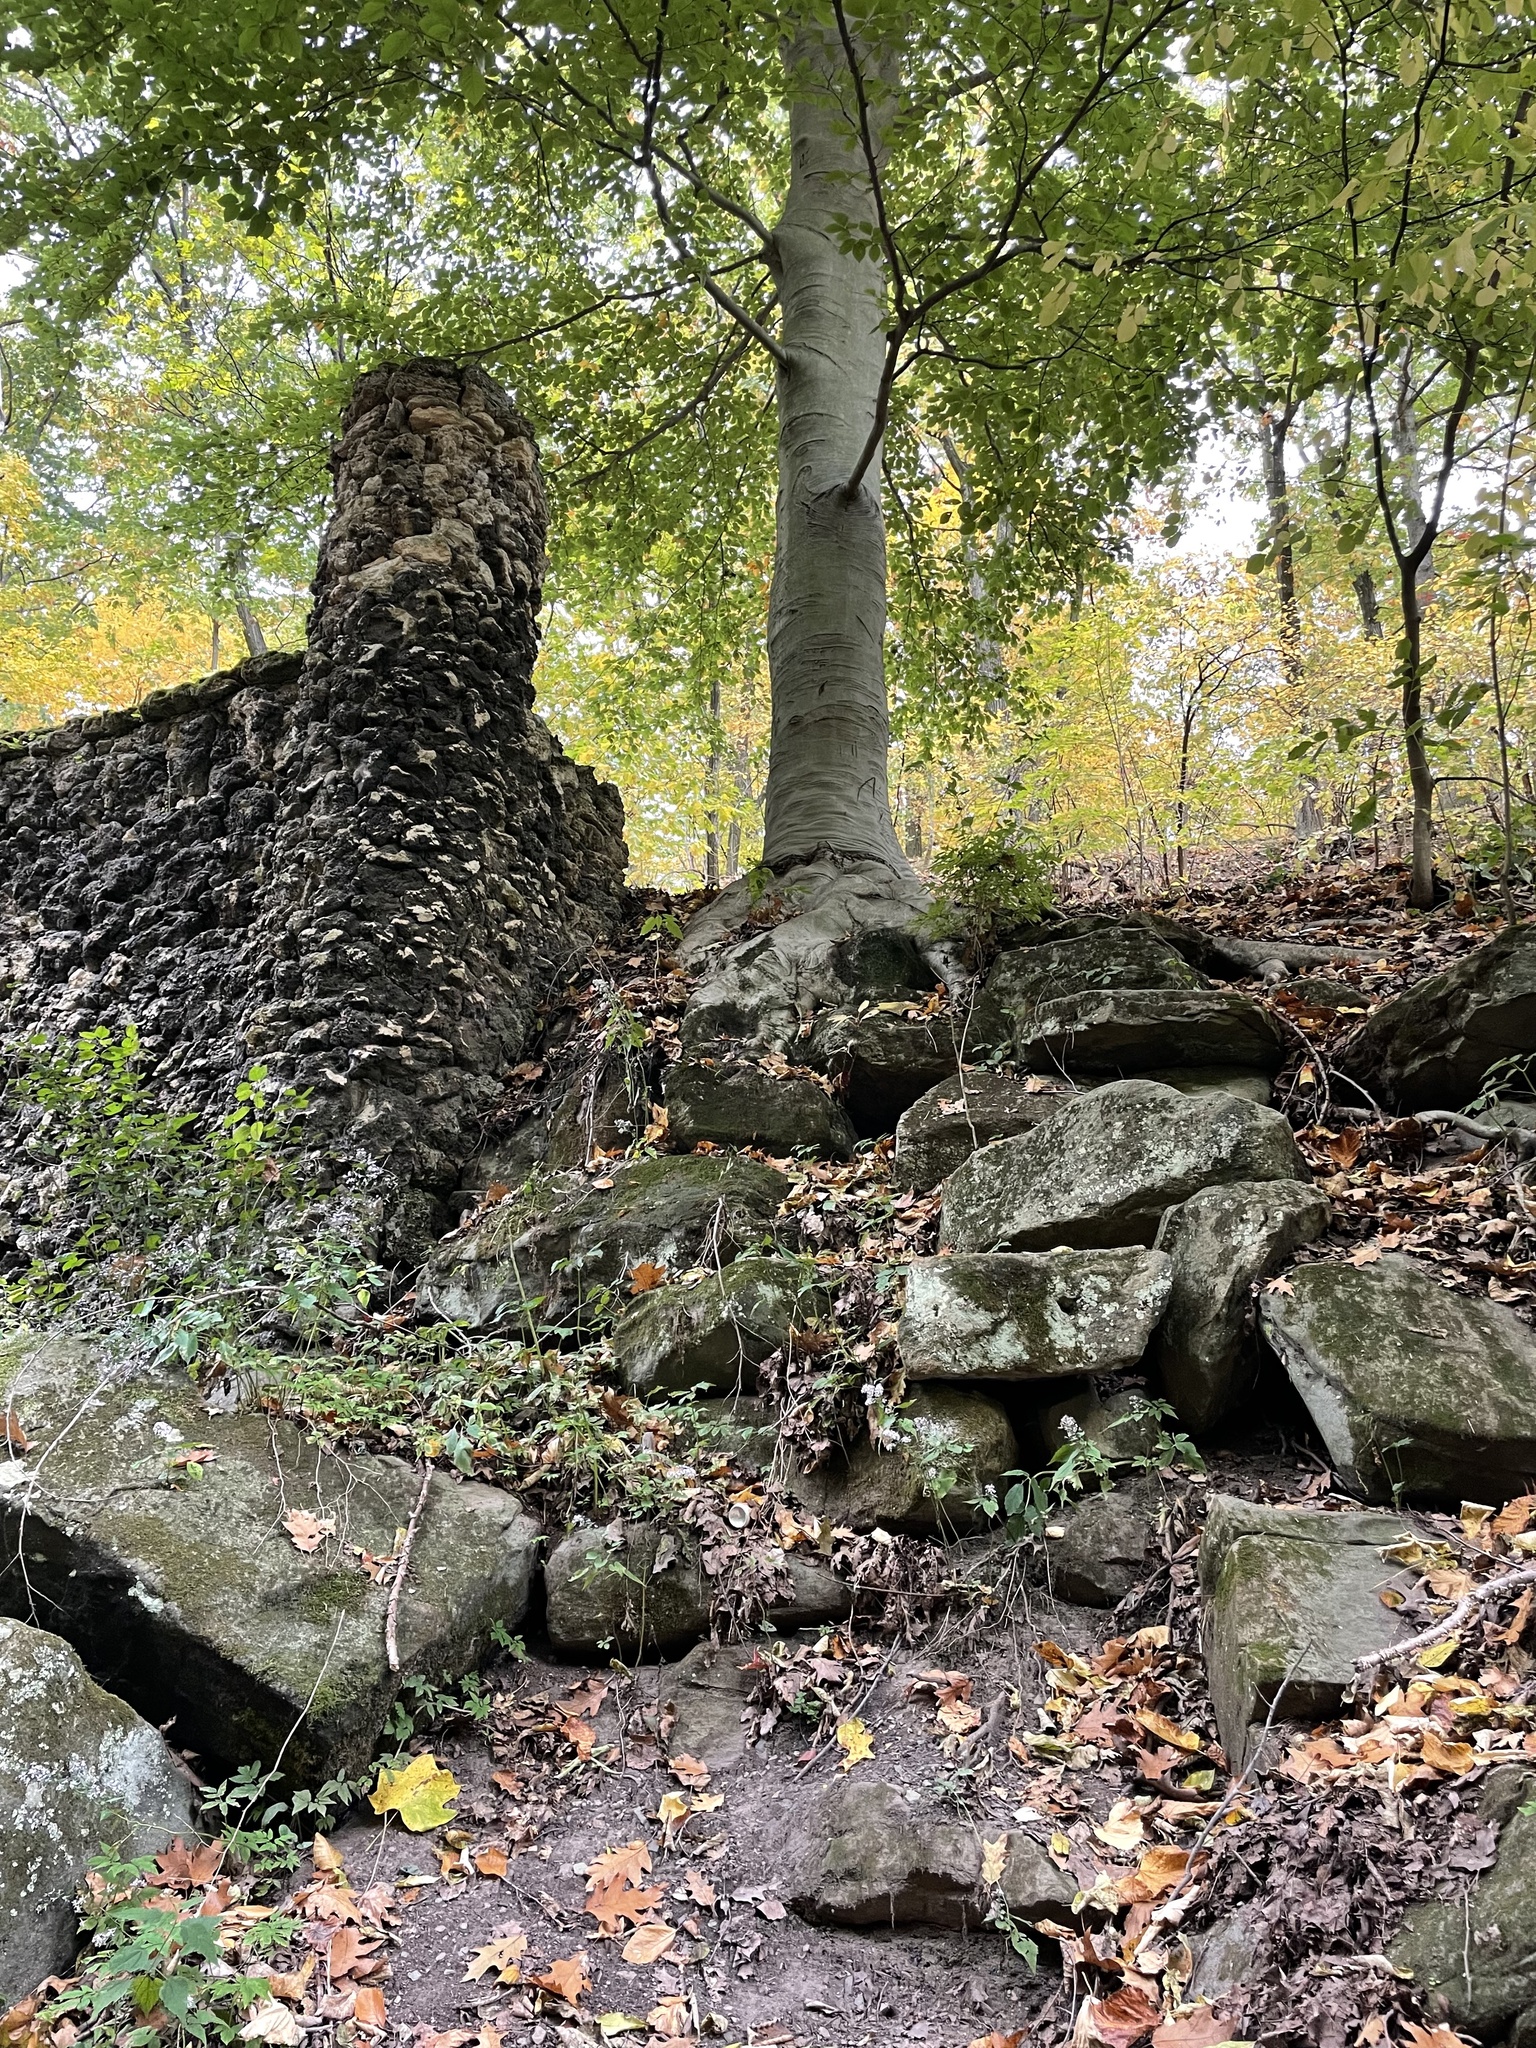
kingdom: Plantae
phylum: Tracheophyta
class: Magnoliopsida
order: Fagales
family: Fagaceae
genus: Fagus
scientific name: Fagus grandifolia
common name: American beech
